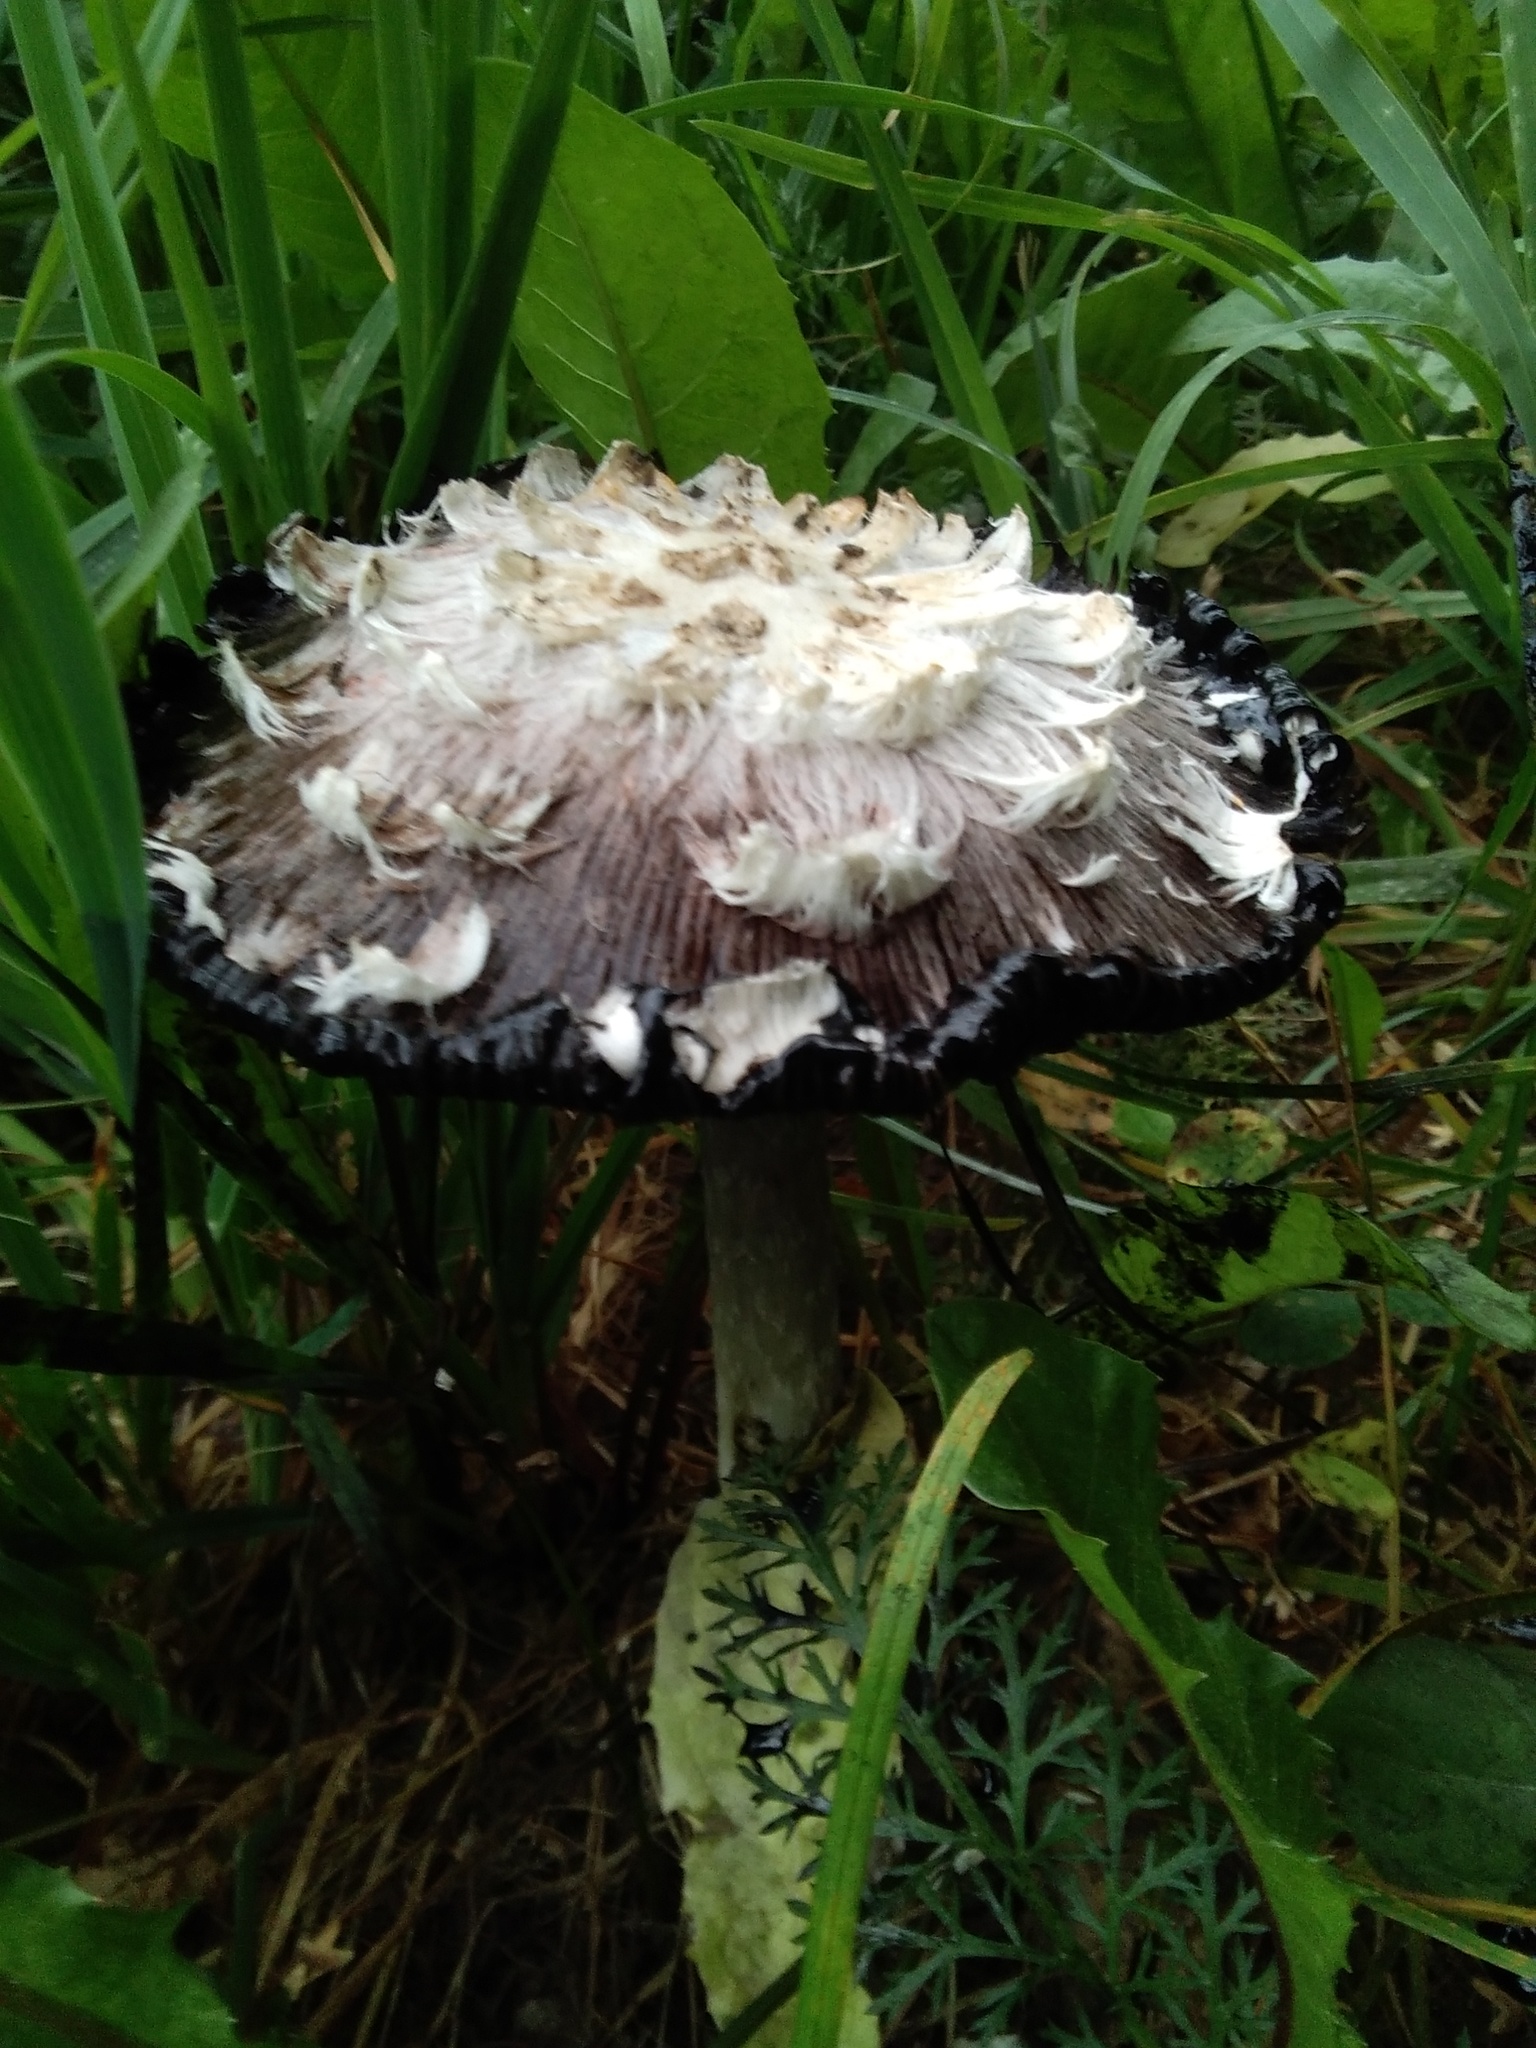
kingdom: Fungi
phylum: Basidiomycota
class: Agaricomycetes
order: Agaricales
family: Agaricaceae
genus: Coprinus
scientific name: Coprinus comatus
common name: Lawyer's wig
